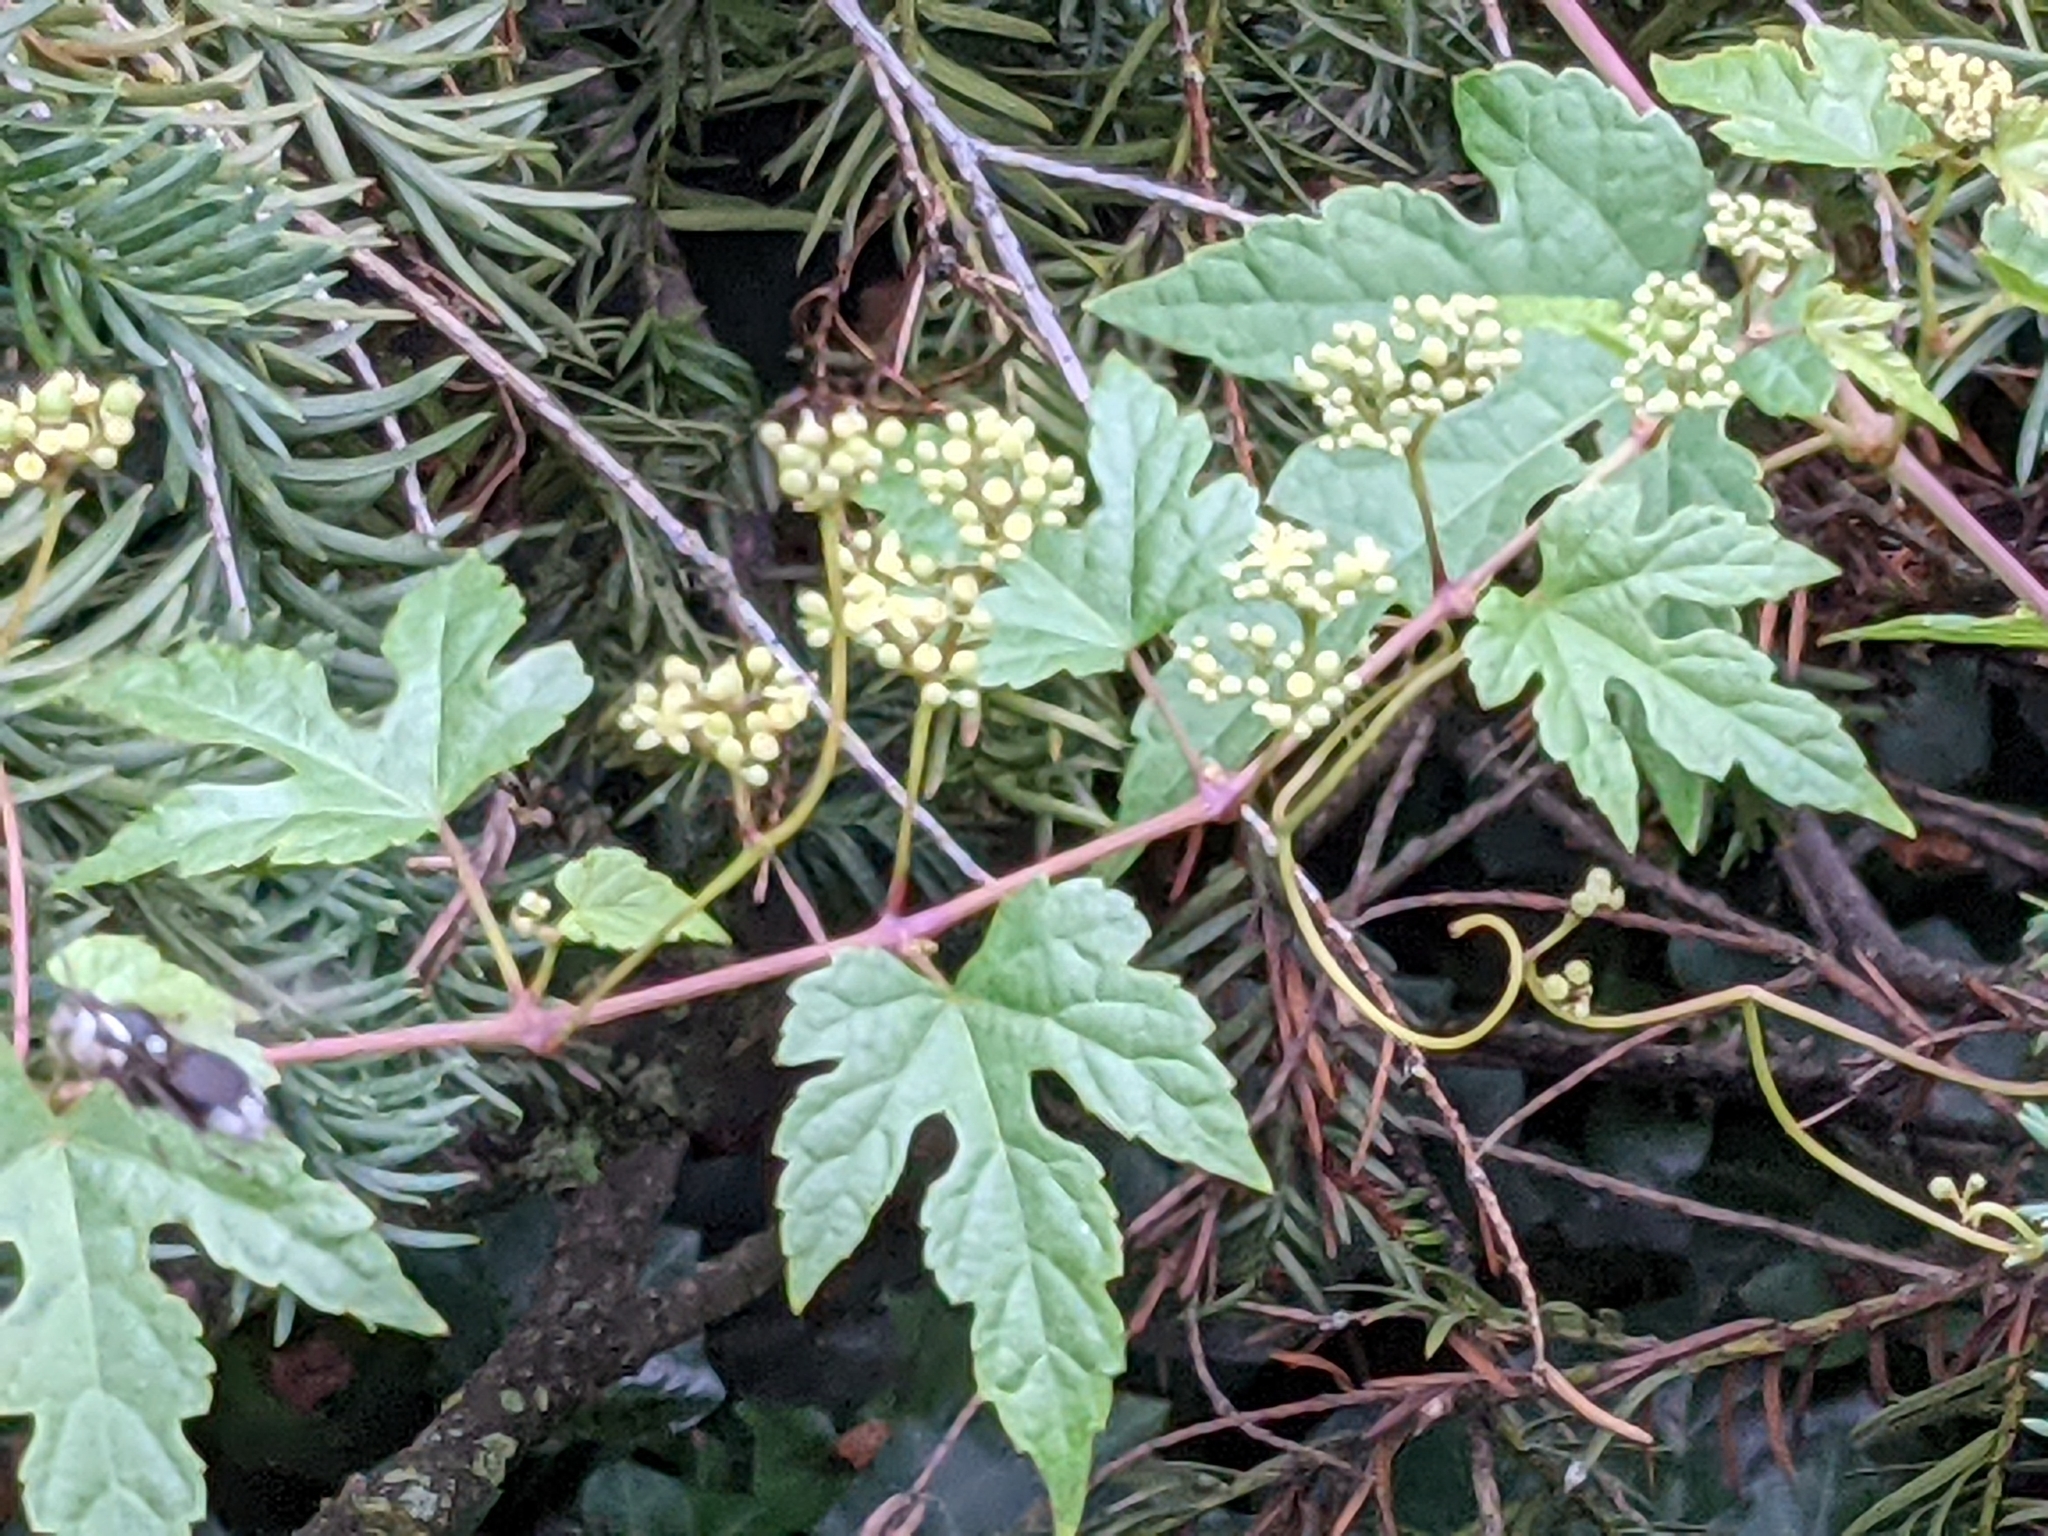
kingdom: Animalia
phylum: Arthropoda
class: Insecta
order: Hymenoptera
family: Vespidae
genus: Dolichovespula
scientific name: Dolichovespula maculata
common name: Bald-faced hornet
